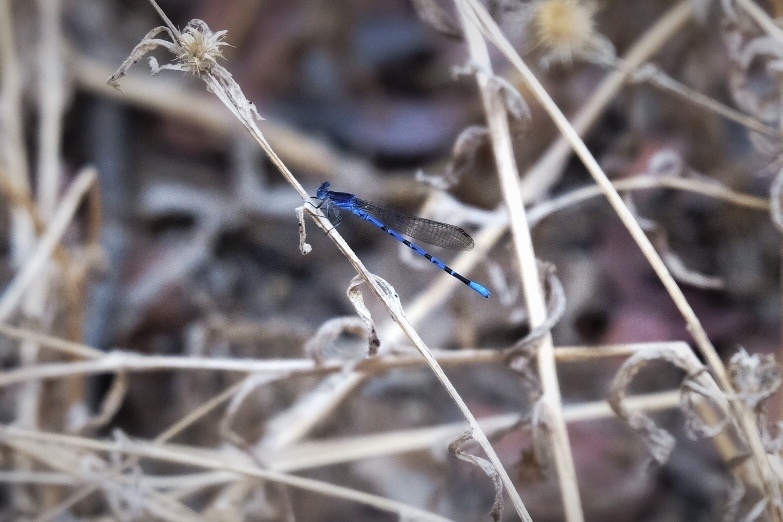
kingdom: Animalia
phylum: Arthropoda
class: Insecta
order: Odonata
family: Coenagrionidae
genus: Argia
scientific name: Argia vivida
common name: Vivid dancer
